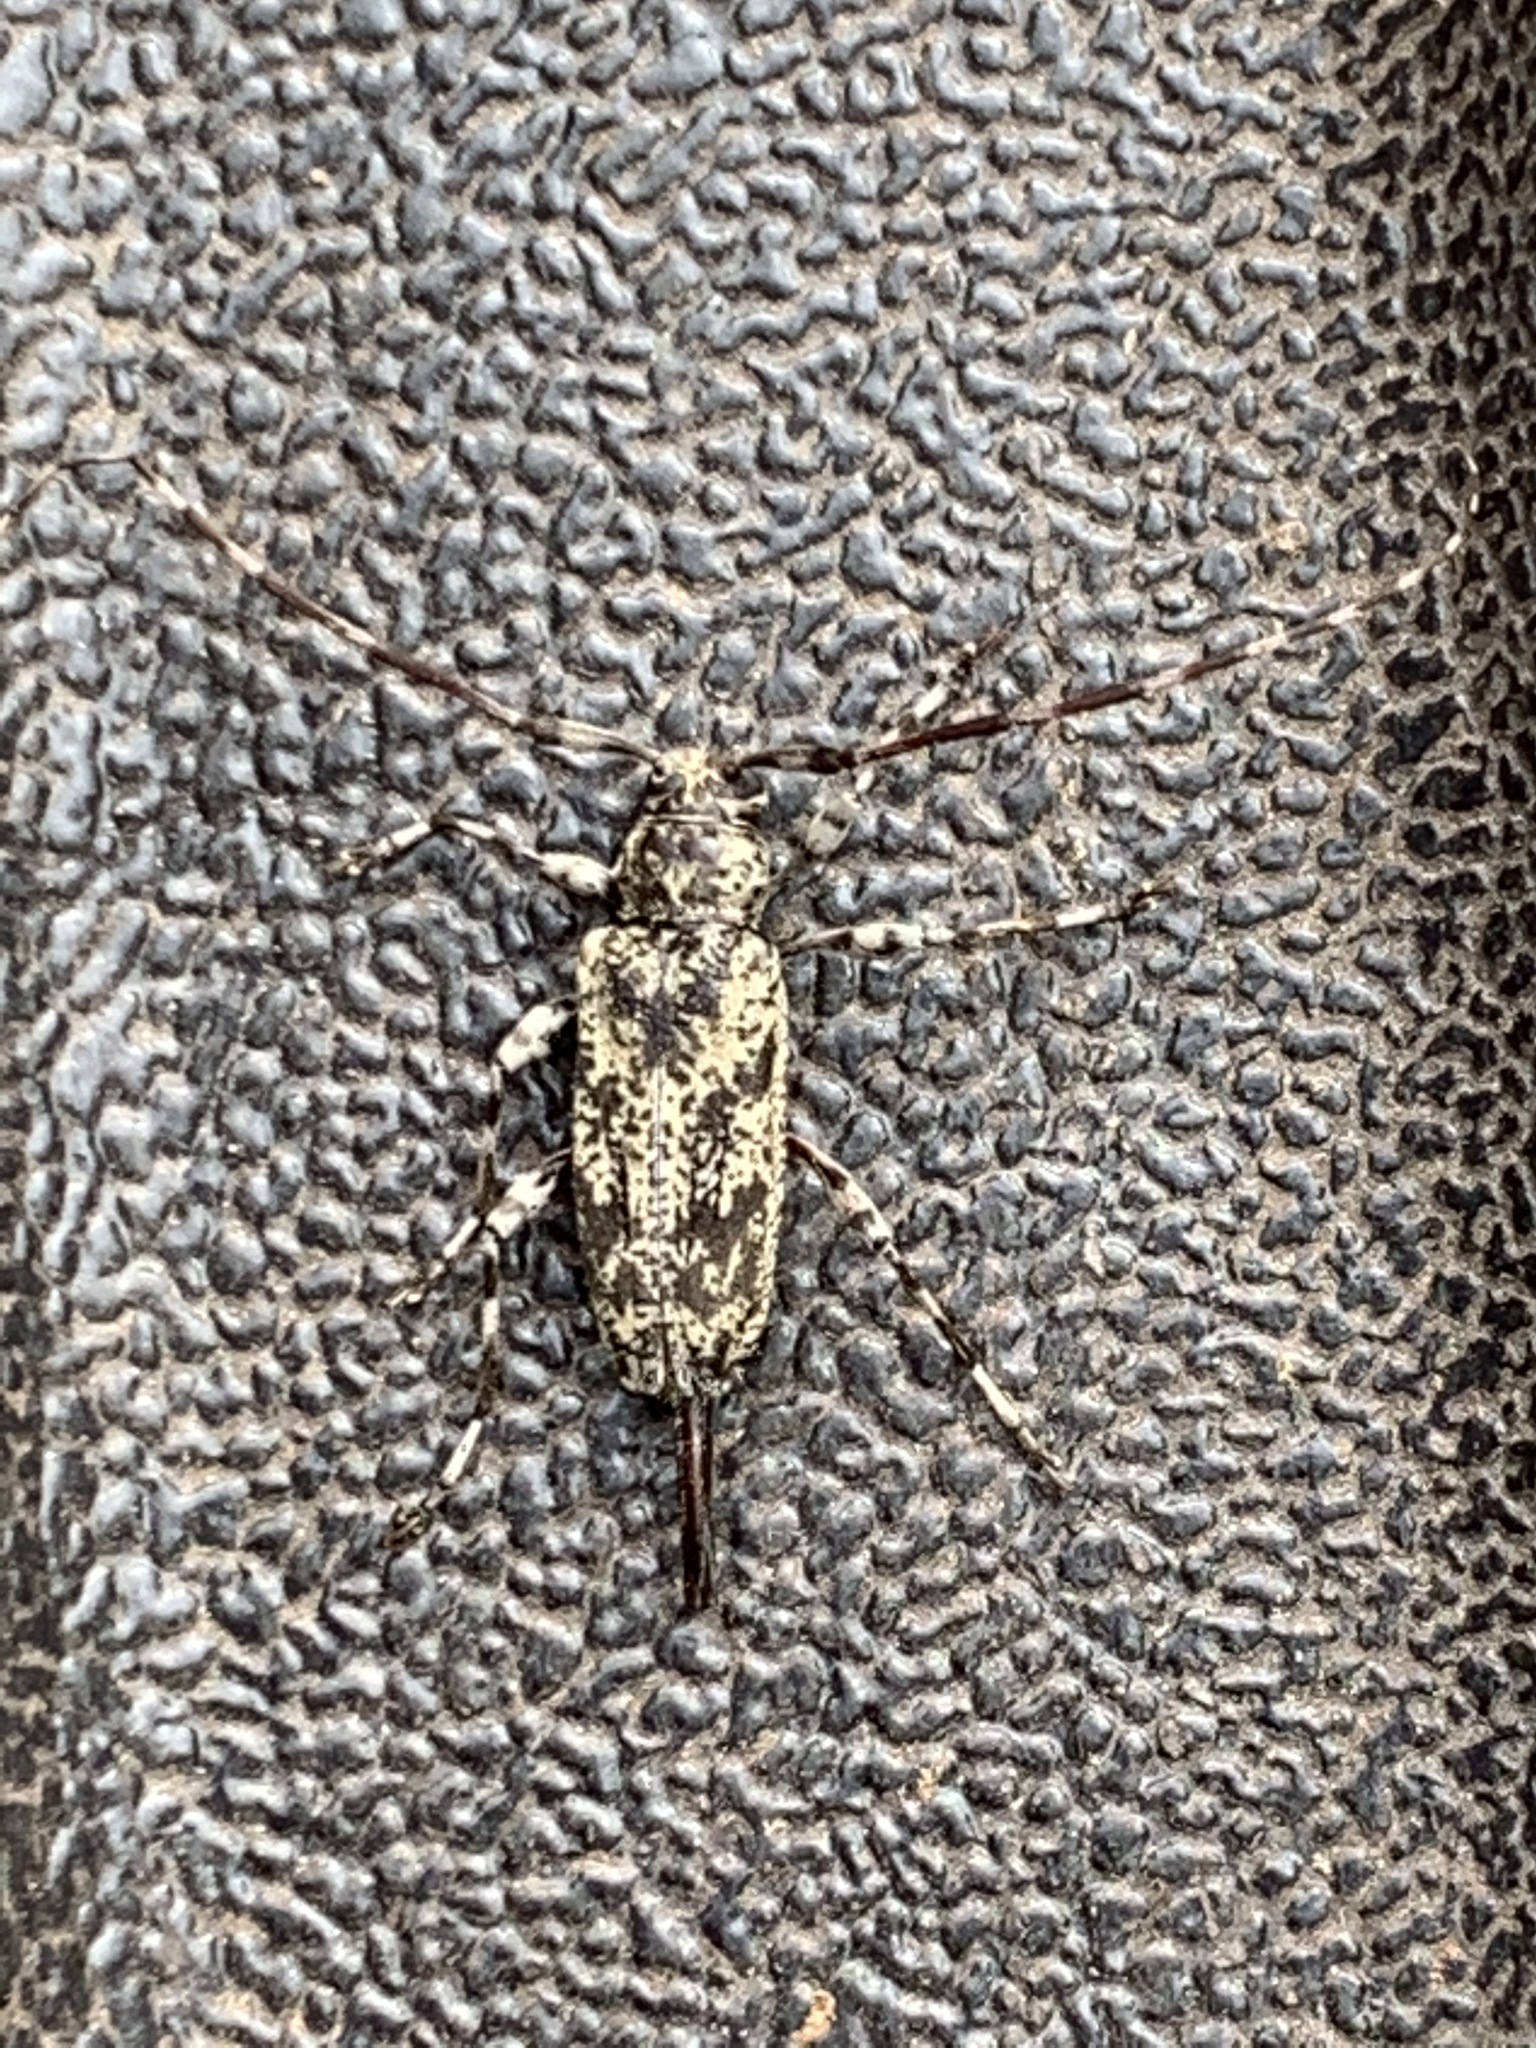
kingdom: Animalia
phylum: Arthropoda
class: Insecta
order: Coleoptera
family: Cerambycidae
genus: Graphisurus
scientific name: Graphisurus fasciatus
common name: Banded graphisurus
